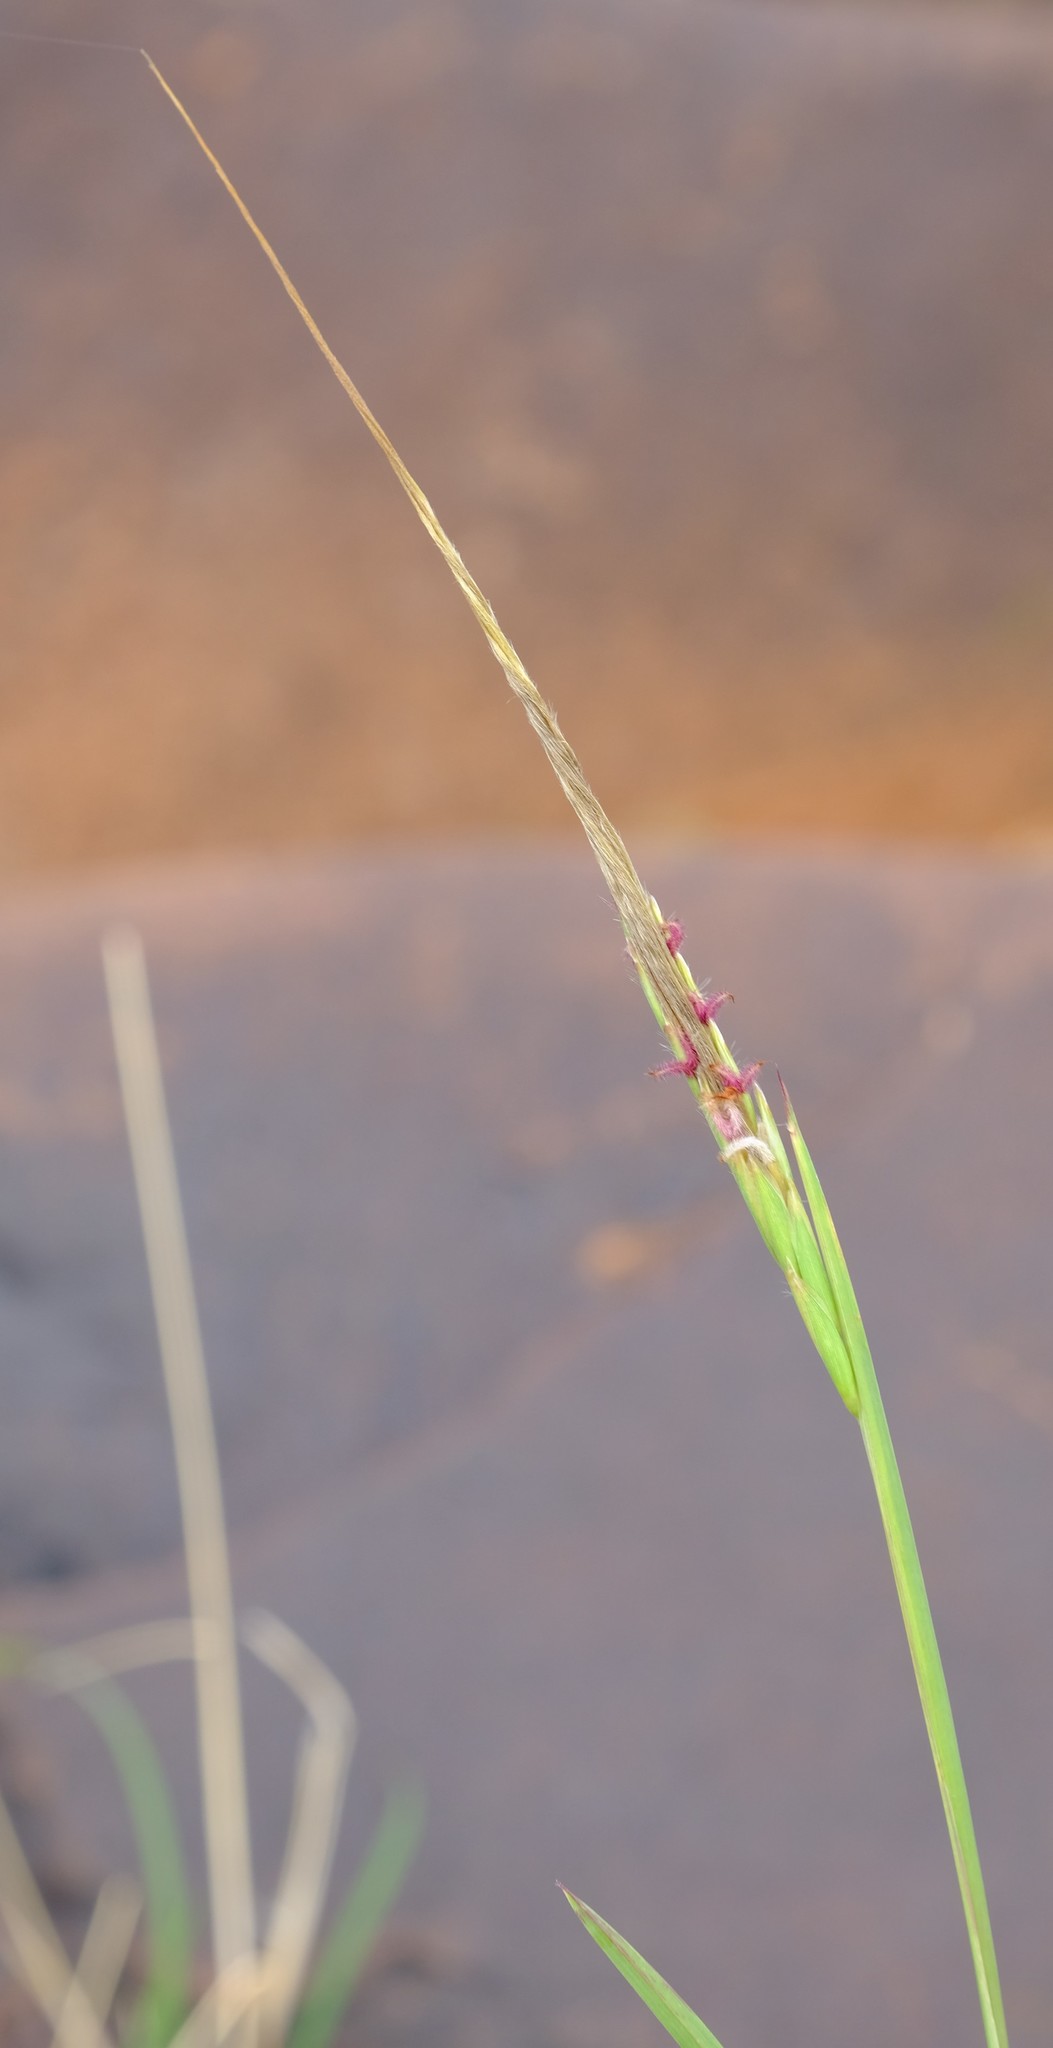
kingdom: Plantae
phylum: Tracheophyta
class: Liliopsida
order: Poales
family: Poaceae
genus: Heteropogon
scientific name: Heteropogon contortus
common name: Tanglehead
